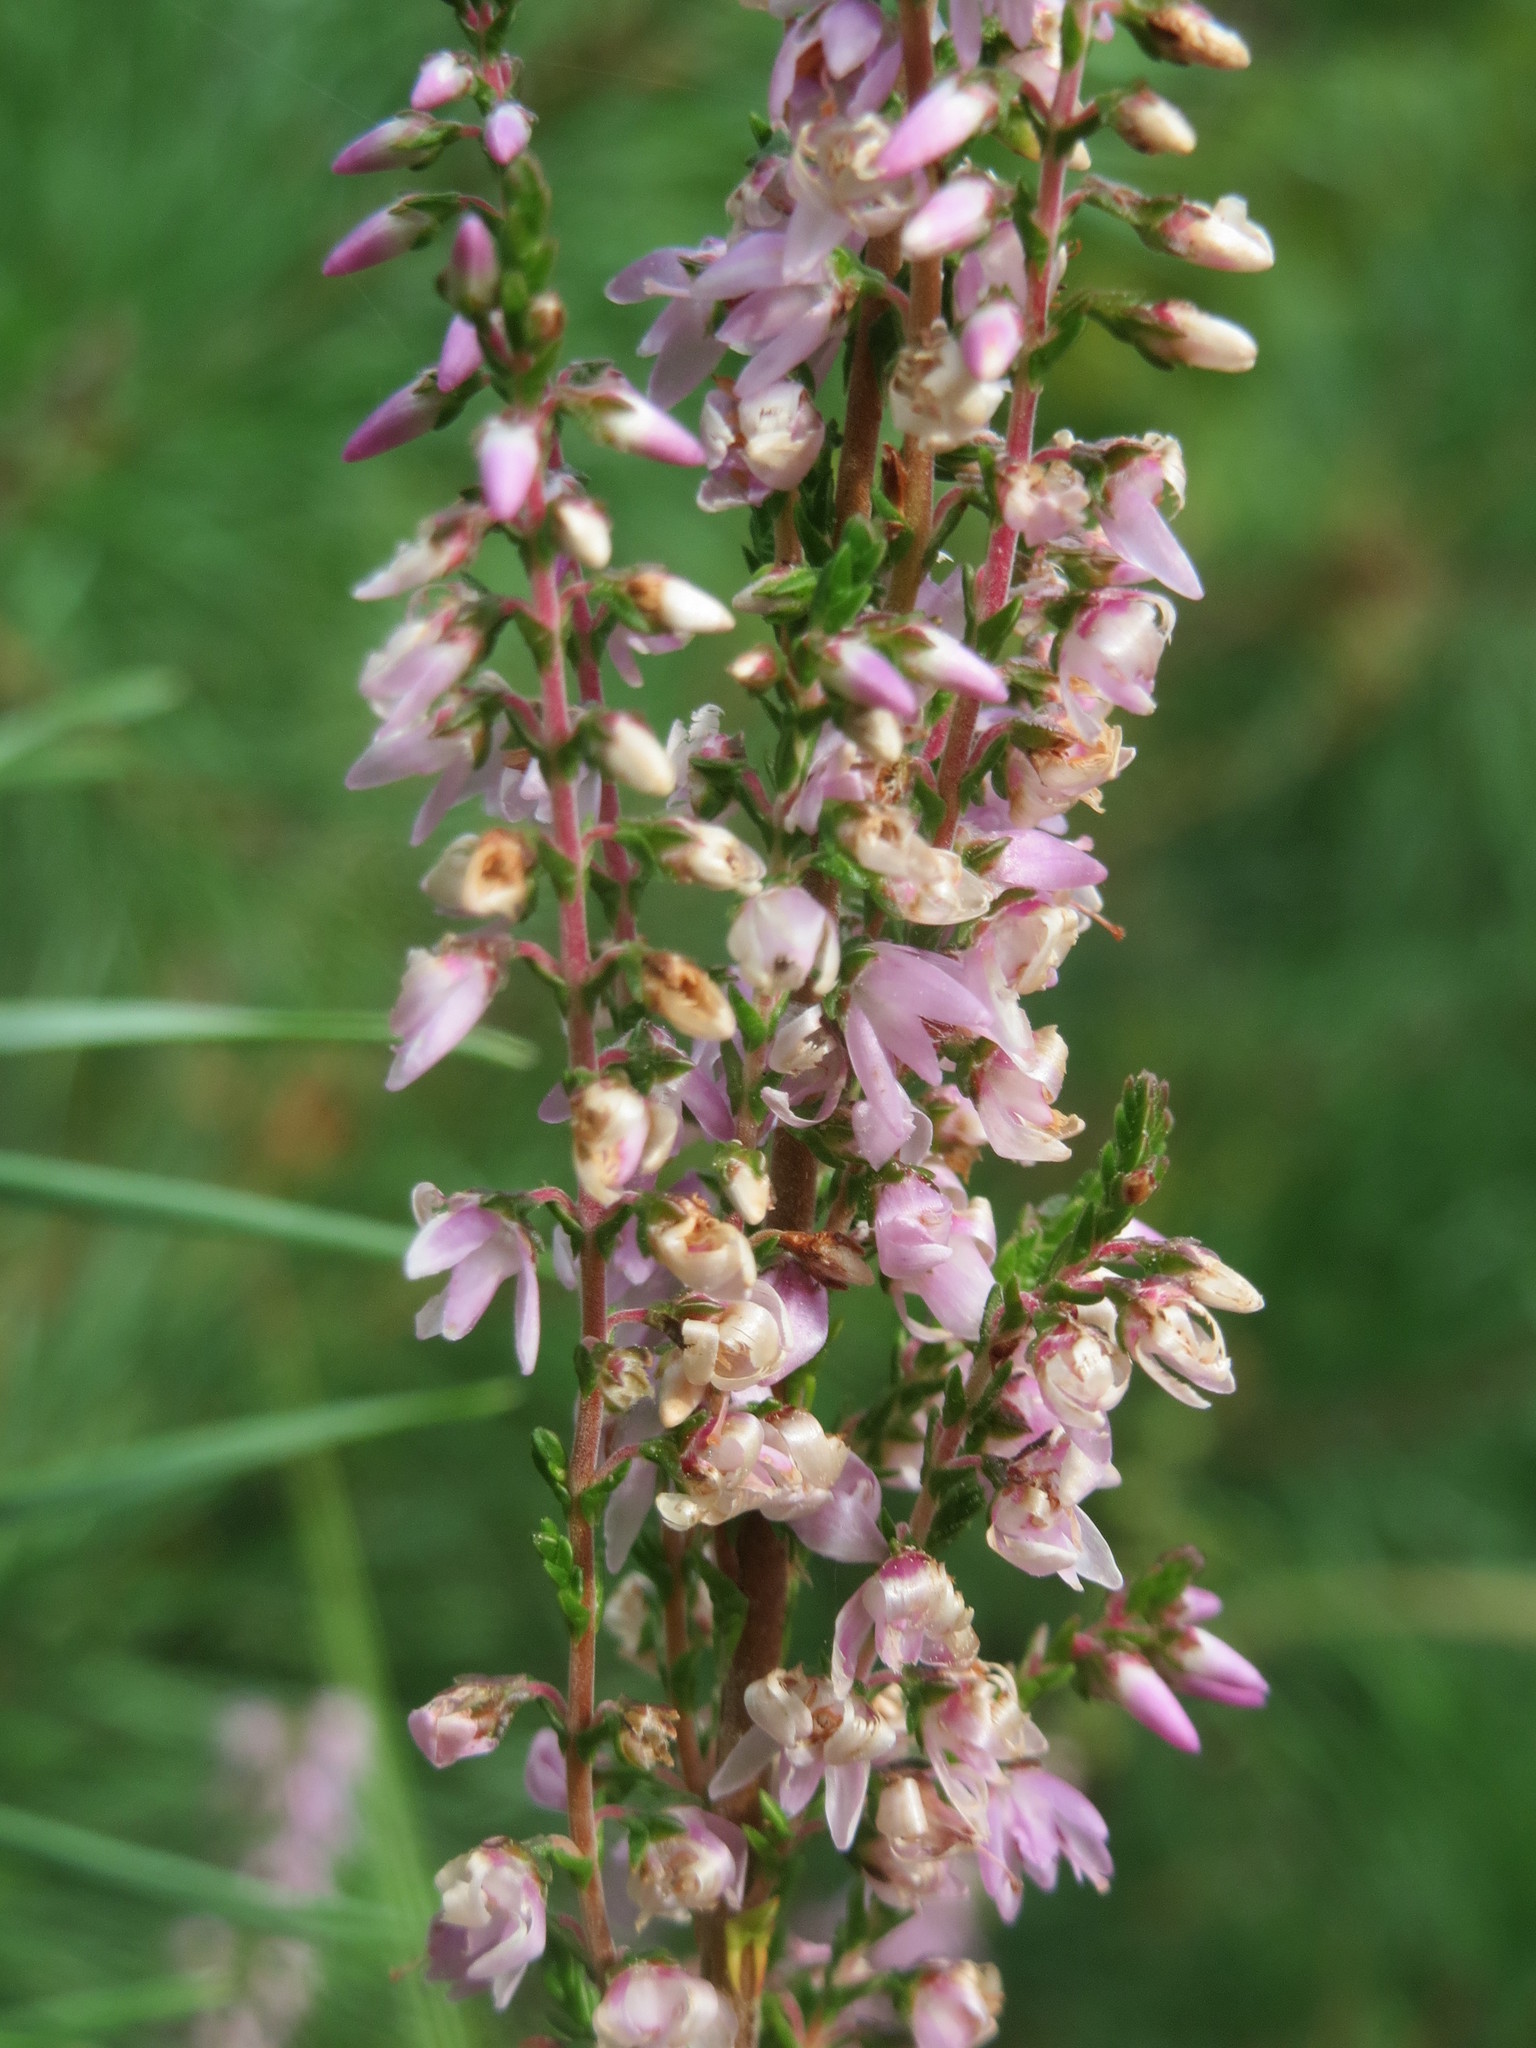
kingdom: Plantae
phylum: Tracheophyta
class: Magnoliopsida
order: Ericales
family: Ericaceae
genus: Calluna
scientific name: Calluna vulgaris
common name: Heather
